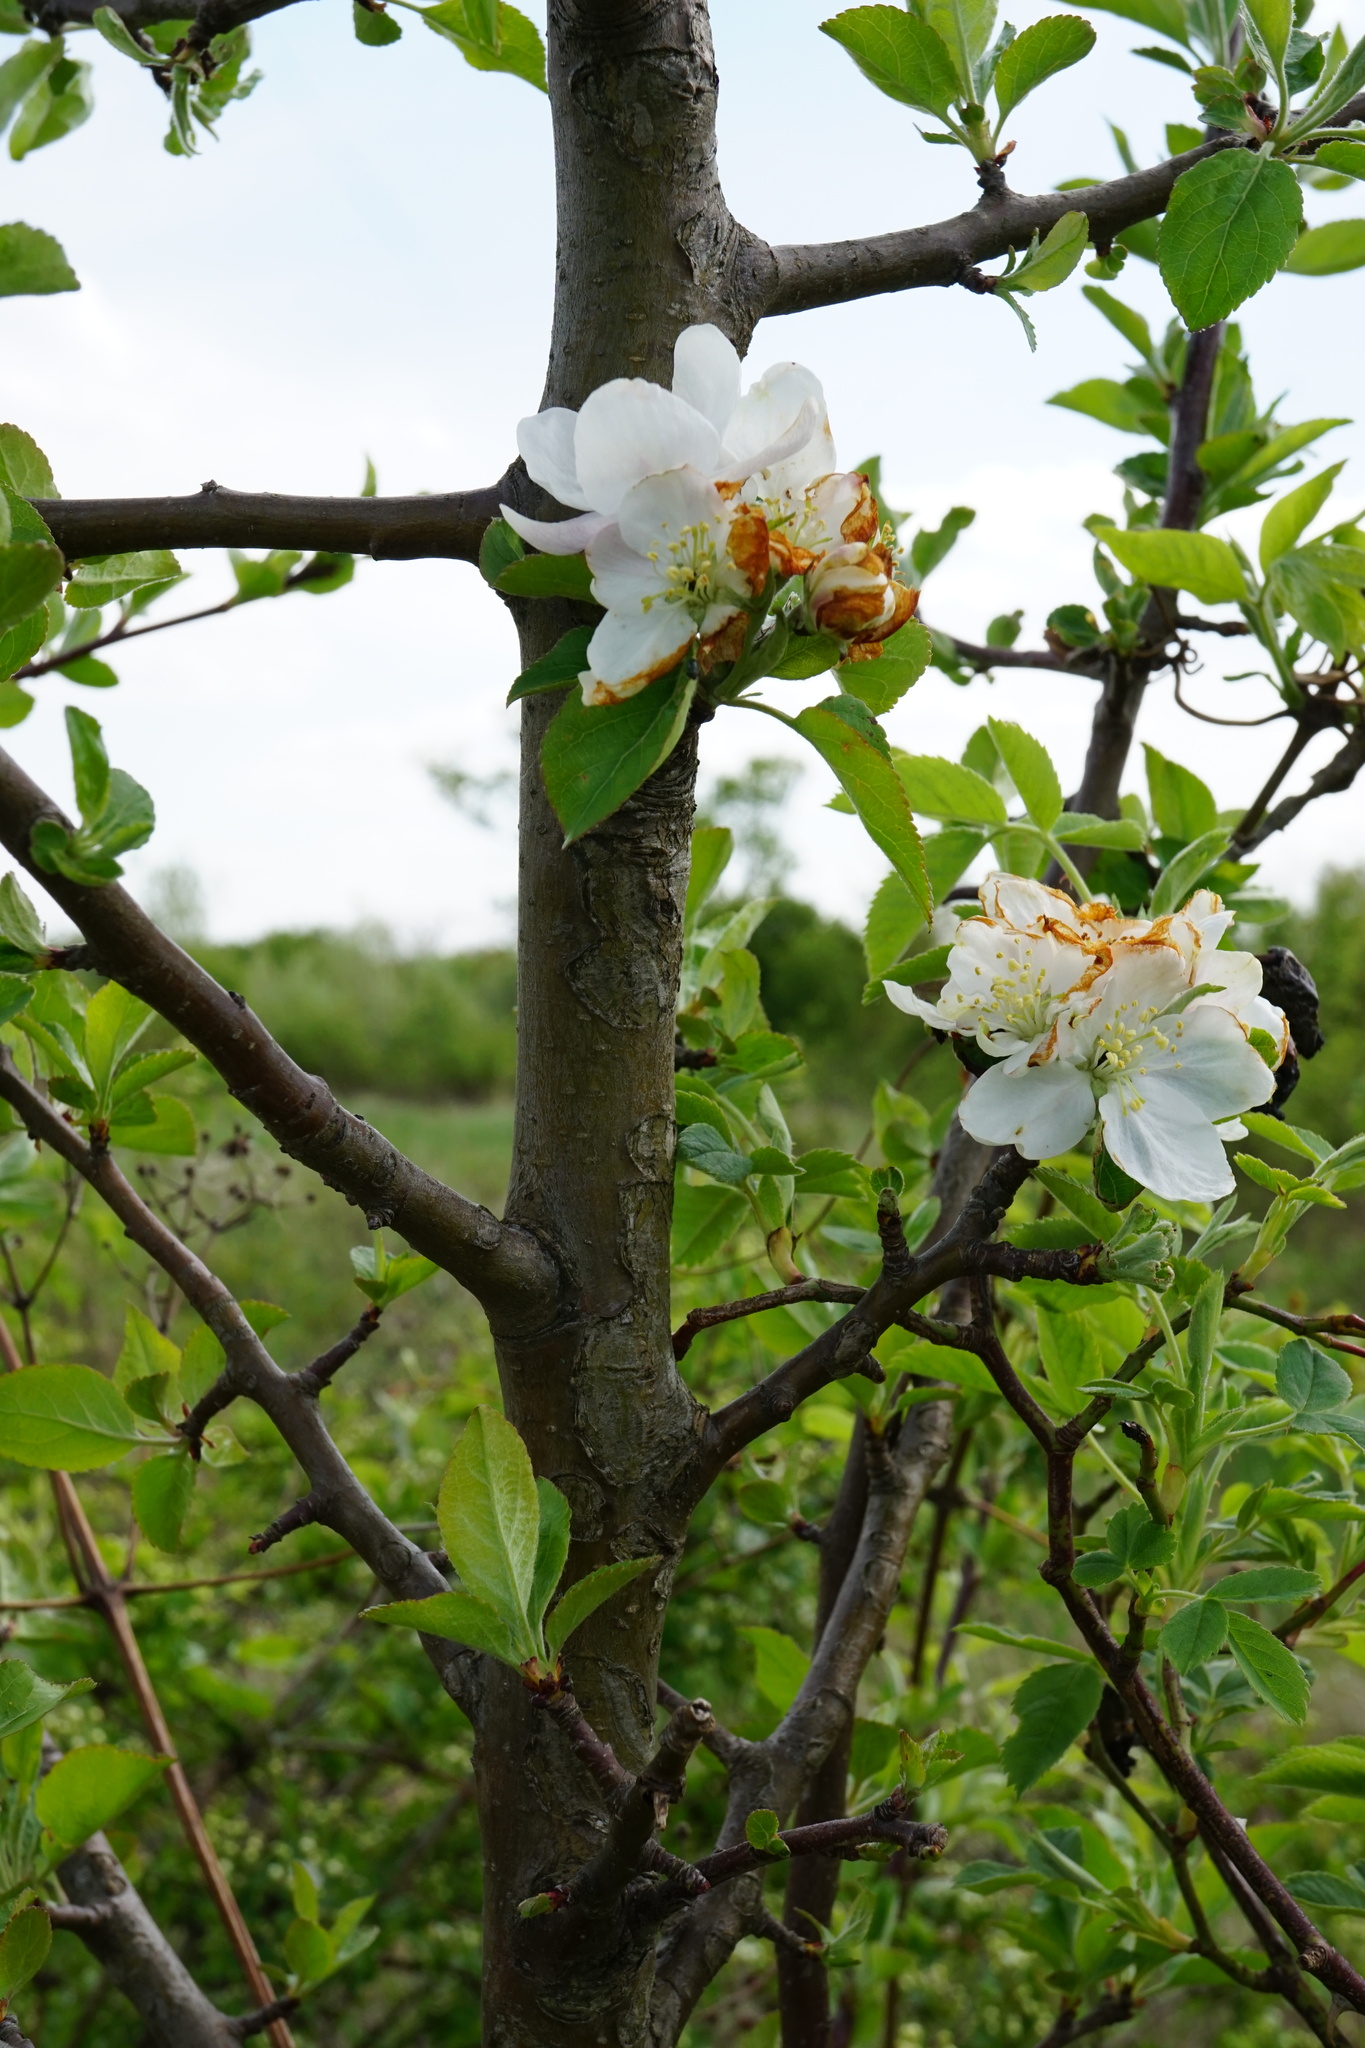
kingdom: Plantae
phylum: Tracheophyta
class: Magnoliopsida
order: Rosales
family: Rosaceae
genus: Malus
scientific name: Malus domestica
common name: Apple
